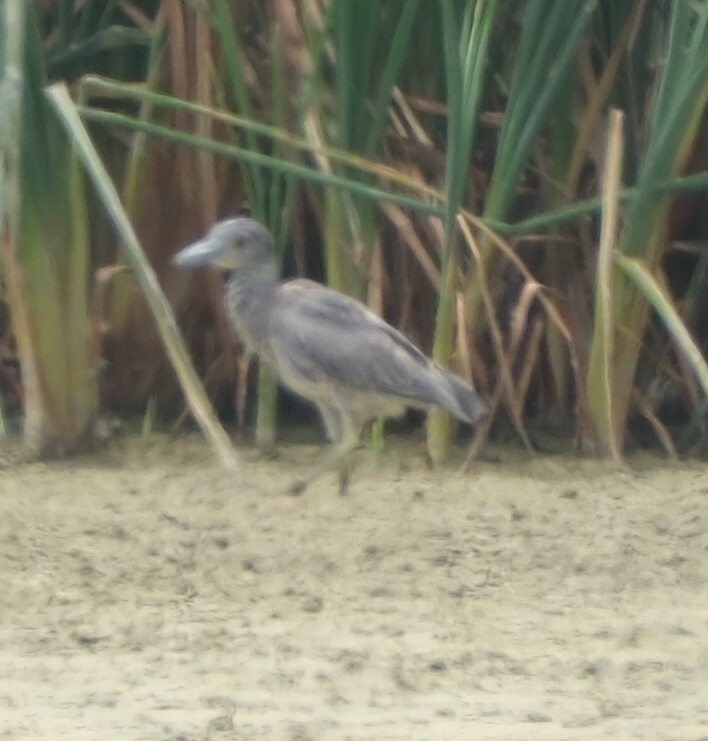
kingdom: Animalia
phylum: Chordata
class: Aves
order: Pelecaniformes
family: Ardeidae
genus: Nyctanassa
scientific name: Nyctanassa violacea
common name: Yellow-crowned night heron
